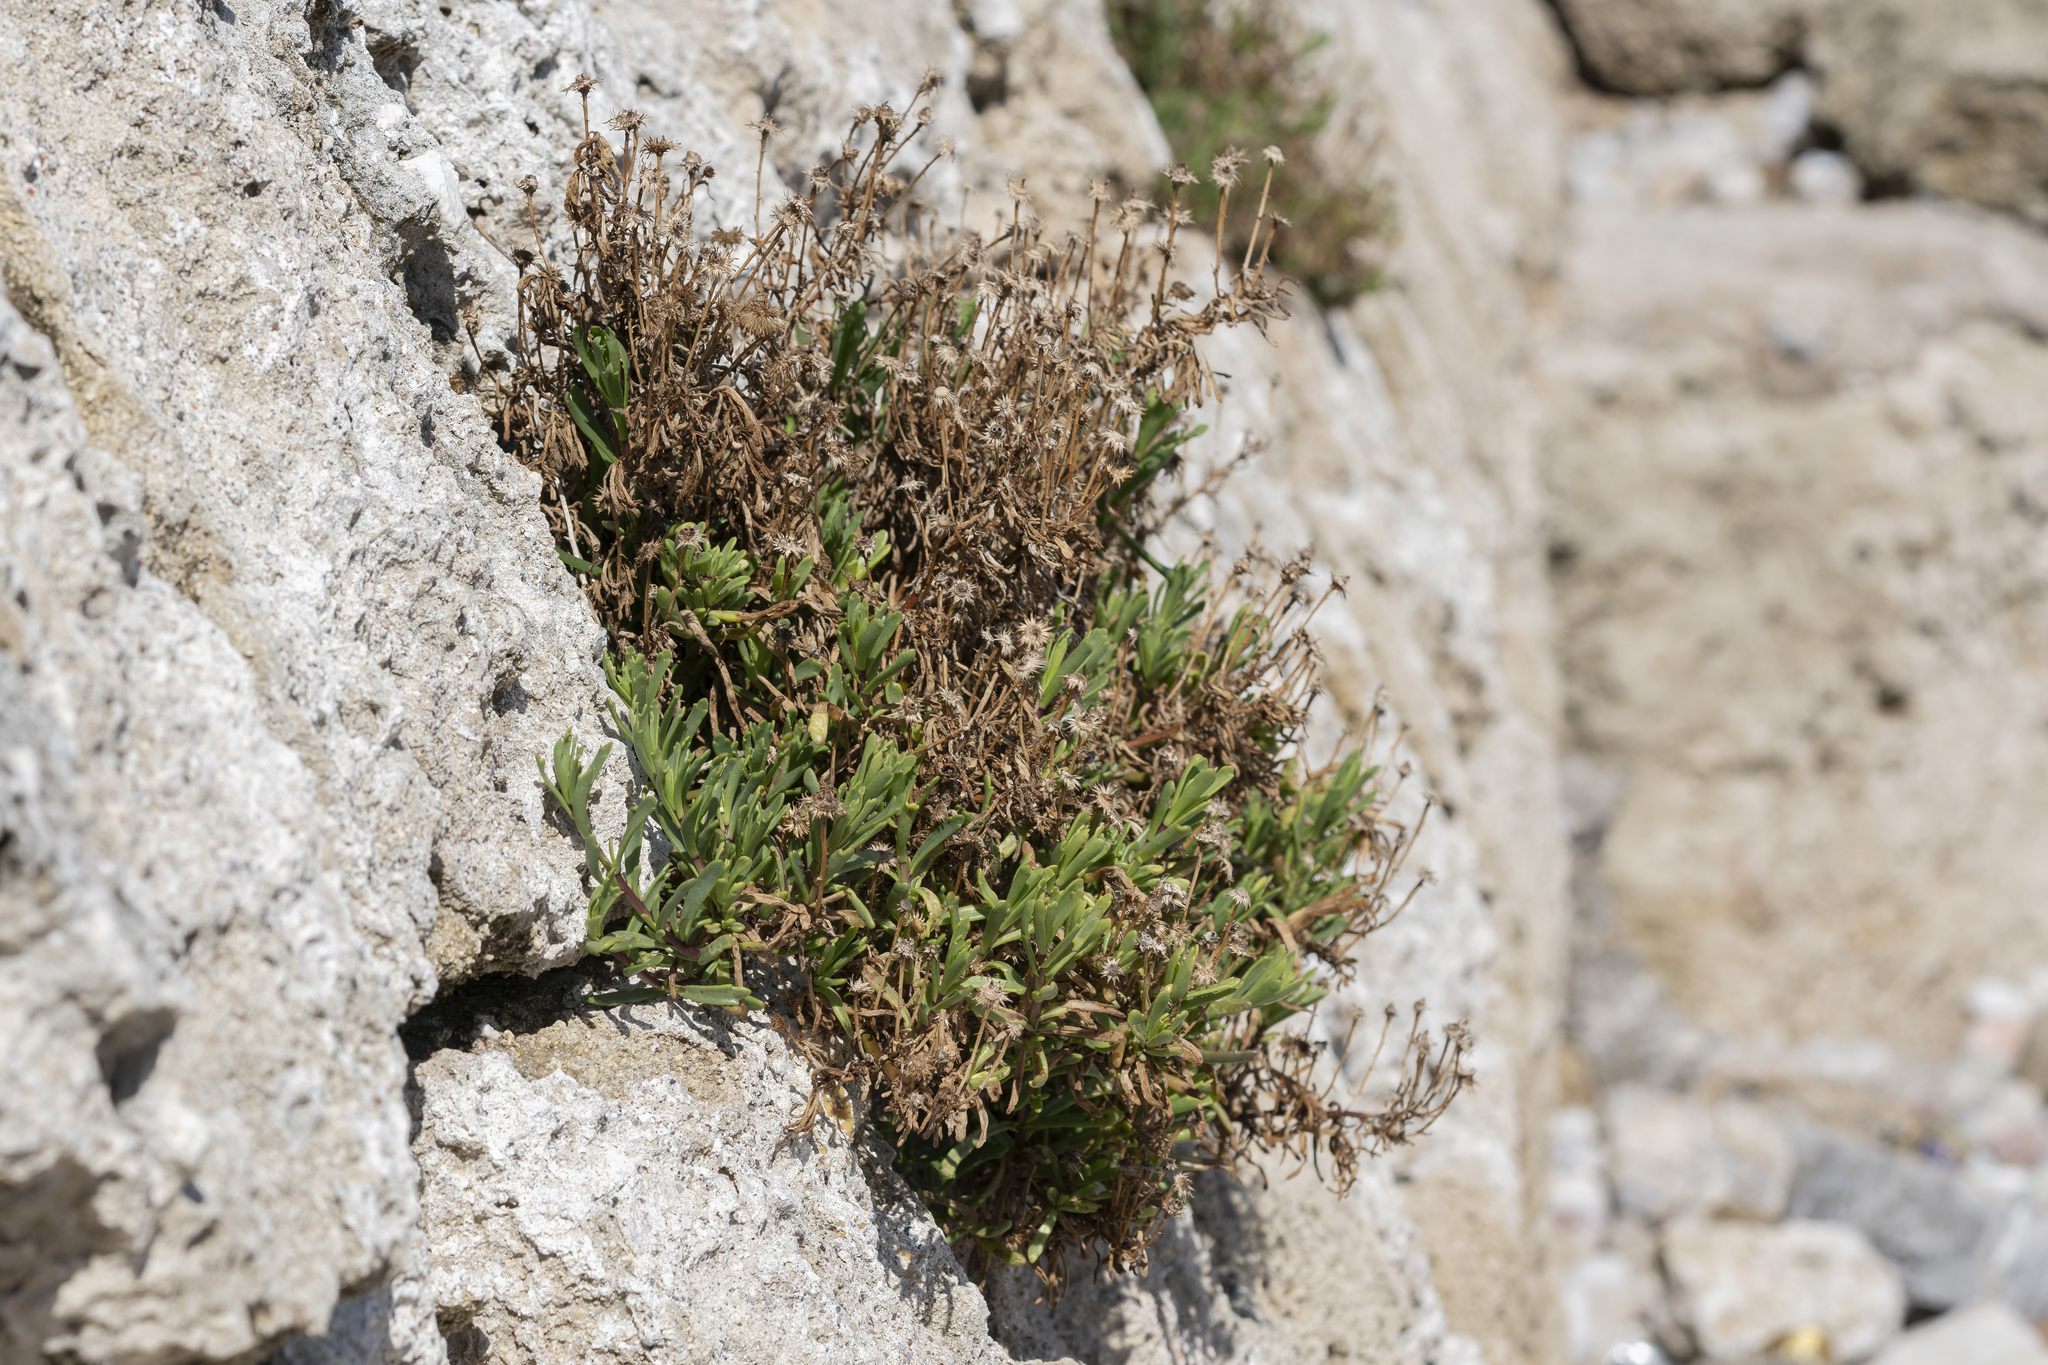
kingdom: Plantae
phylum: Tracheophyta
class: Magnoliopsida
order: Asterales
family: Asteraceae
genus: Limbarda
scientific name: Limbarda crithmoides
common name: Golden samphire
